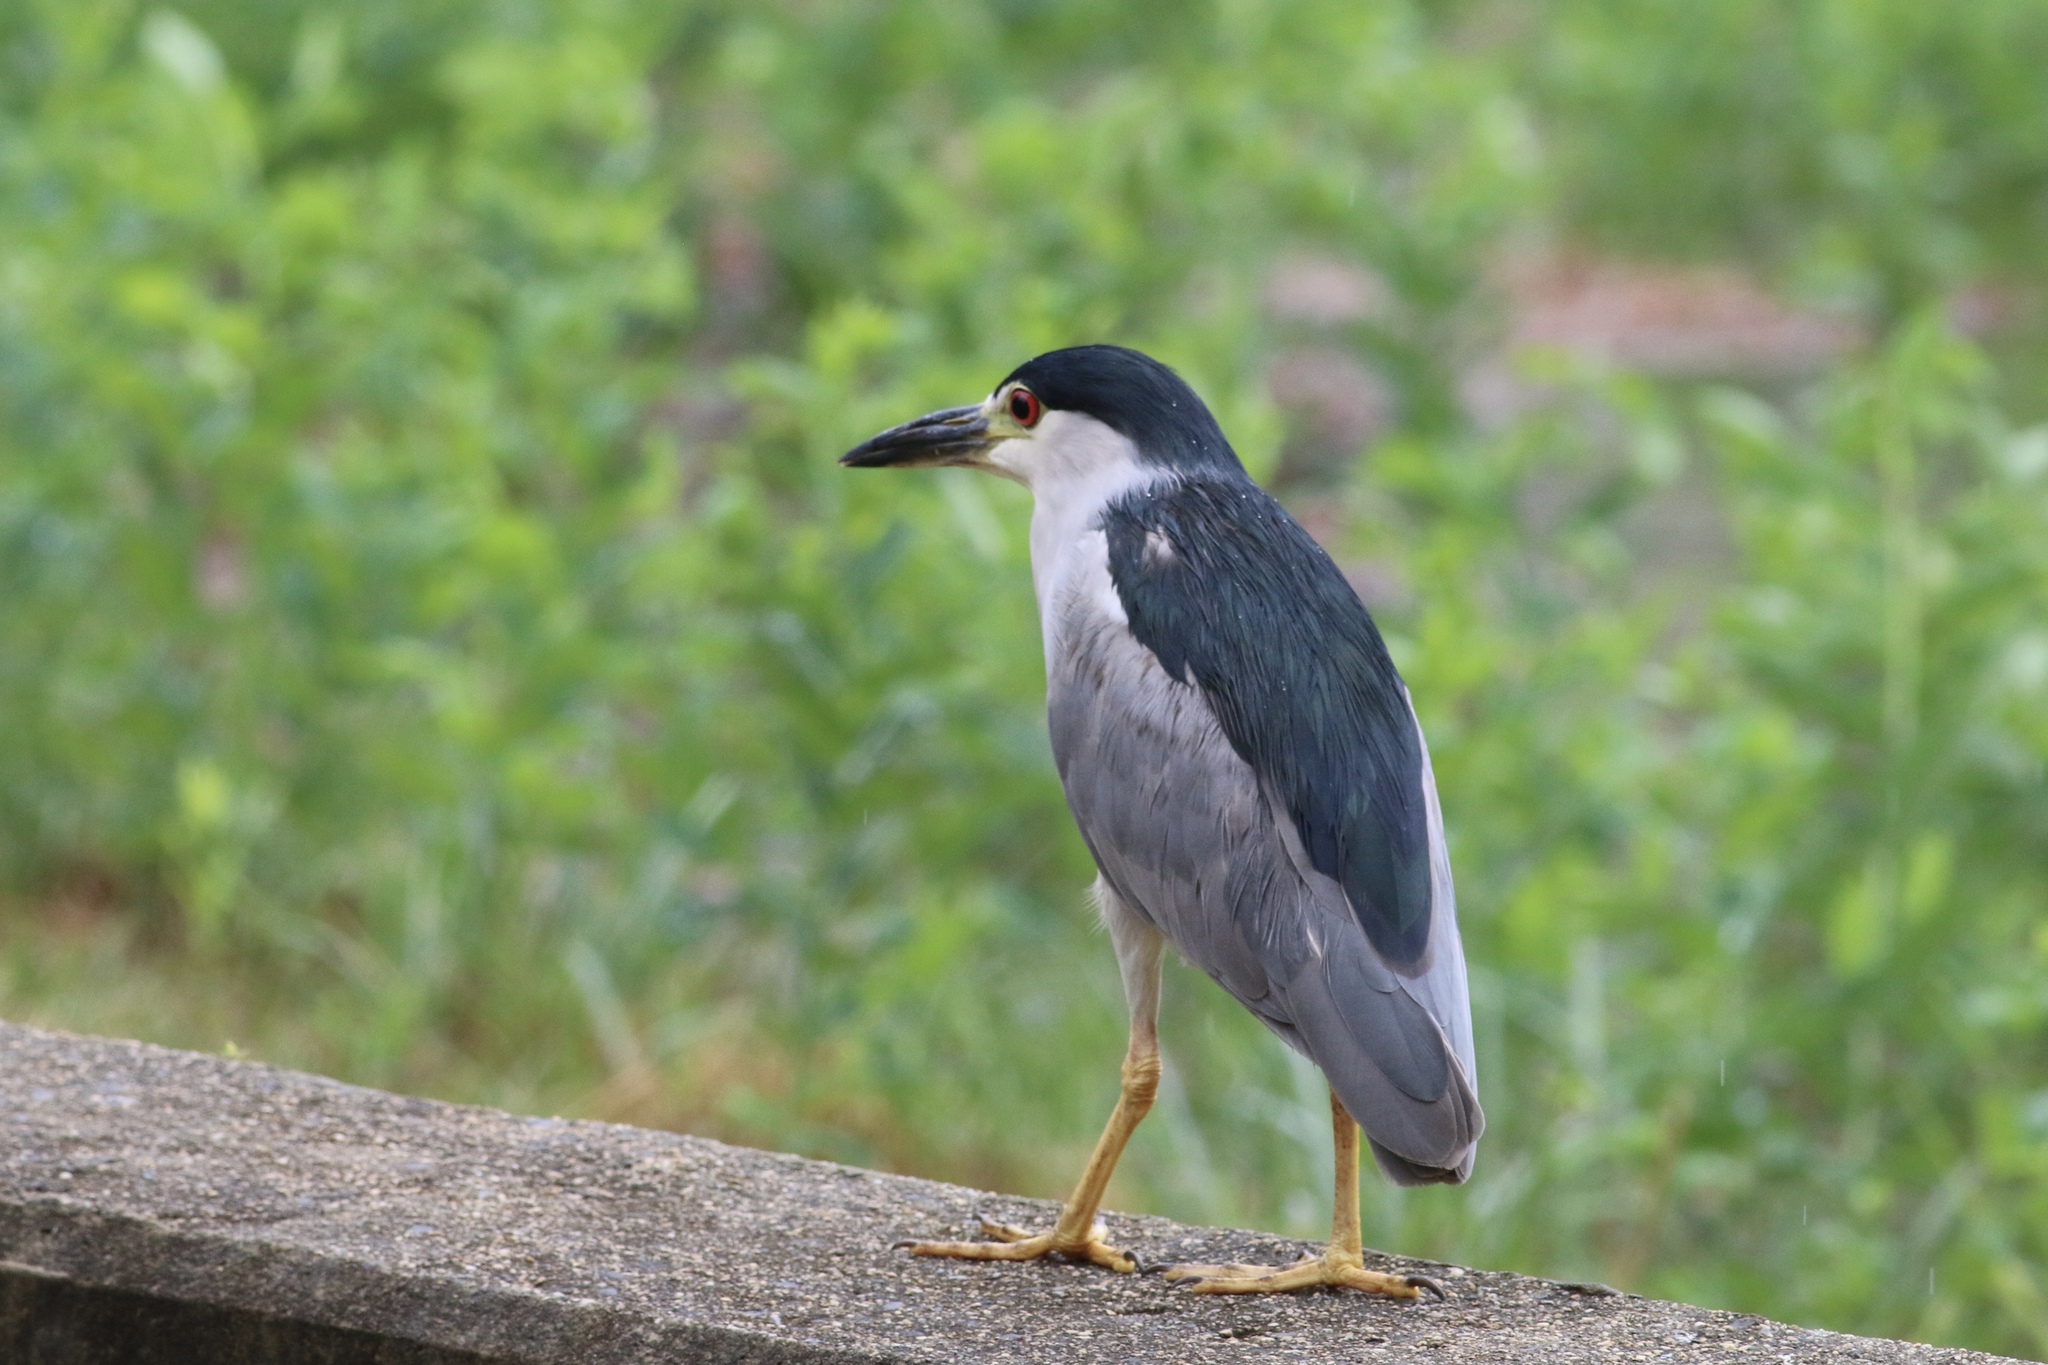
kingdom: Animalia
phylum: Chordata
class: Aves
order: Pelecaniformes
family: Ardeidae
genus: Nycticorax
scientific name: Nycticorax nycticorax
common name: Black-crowned night heron
